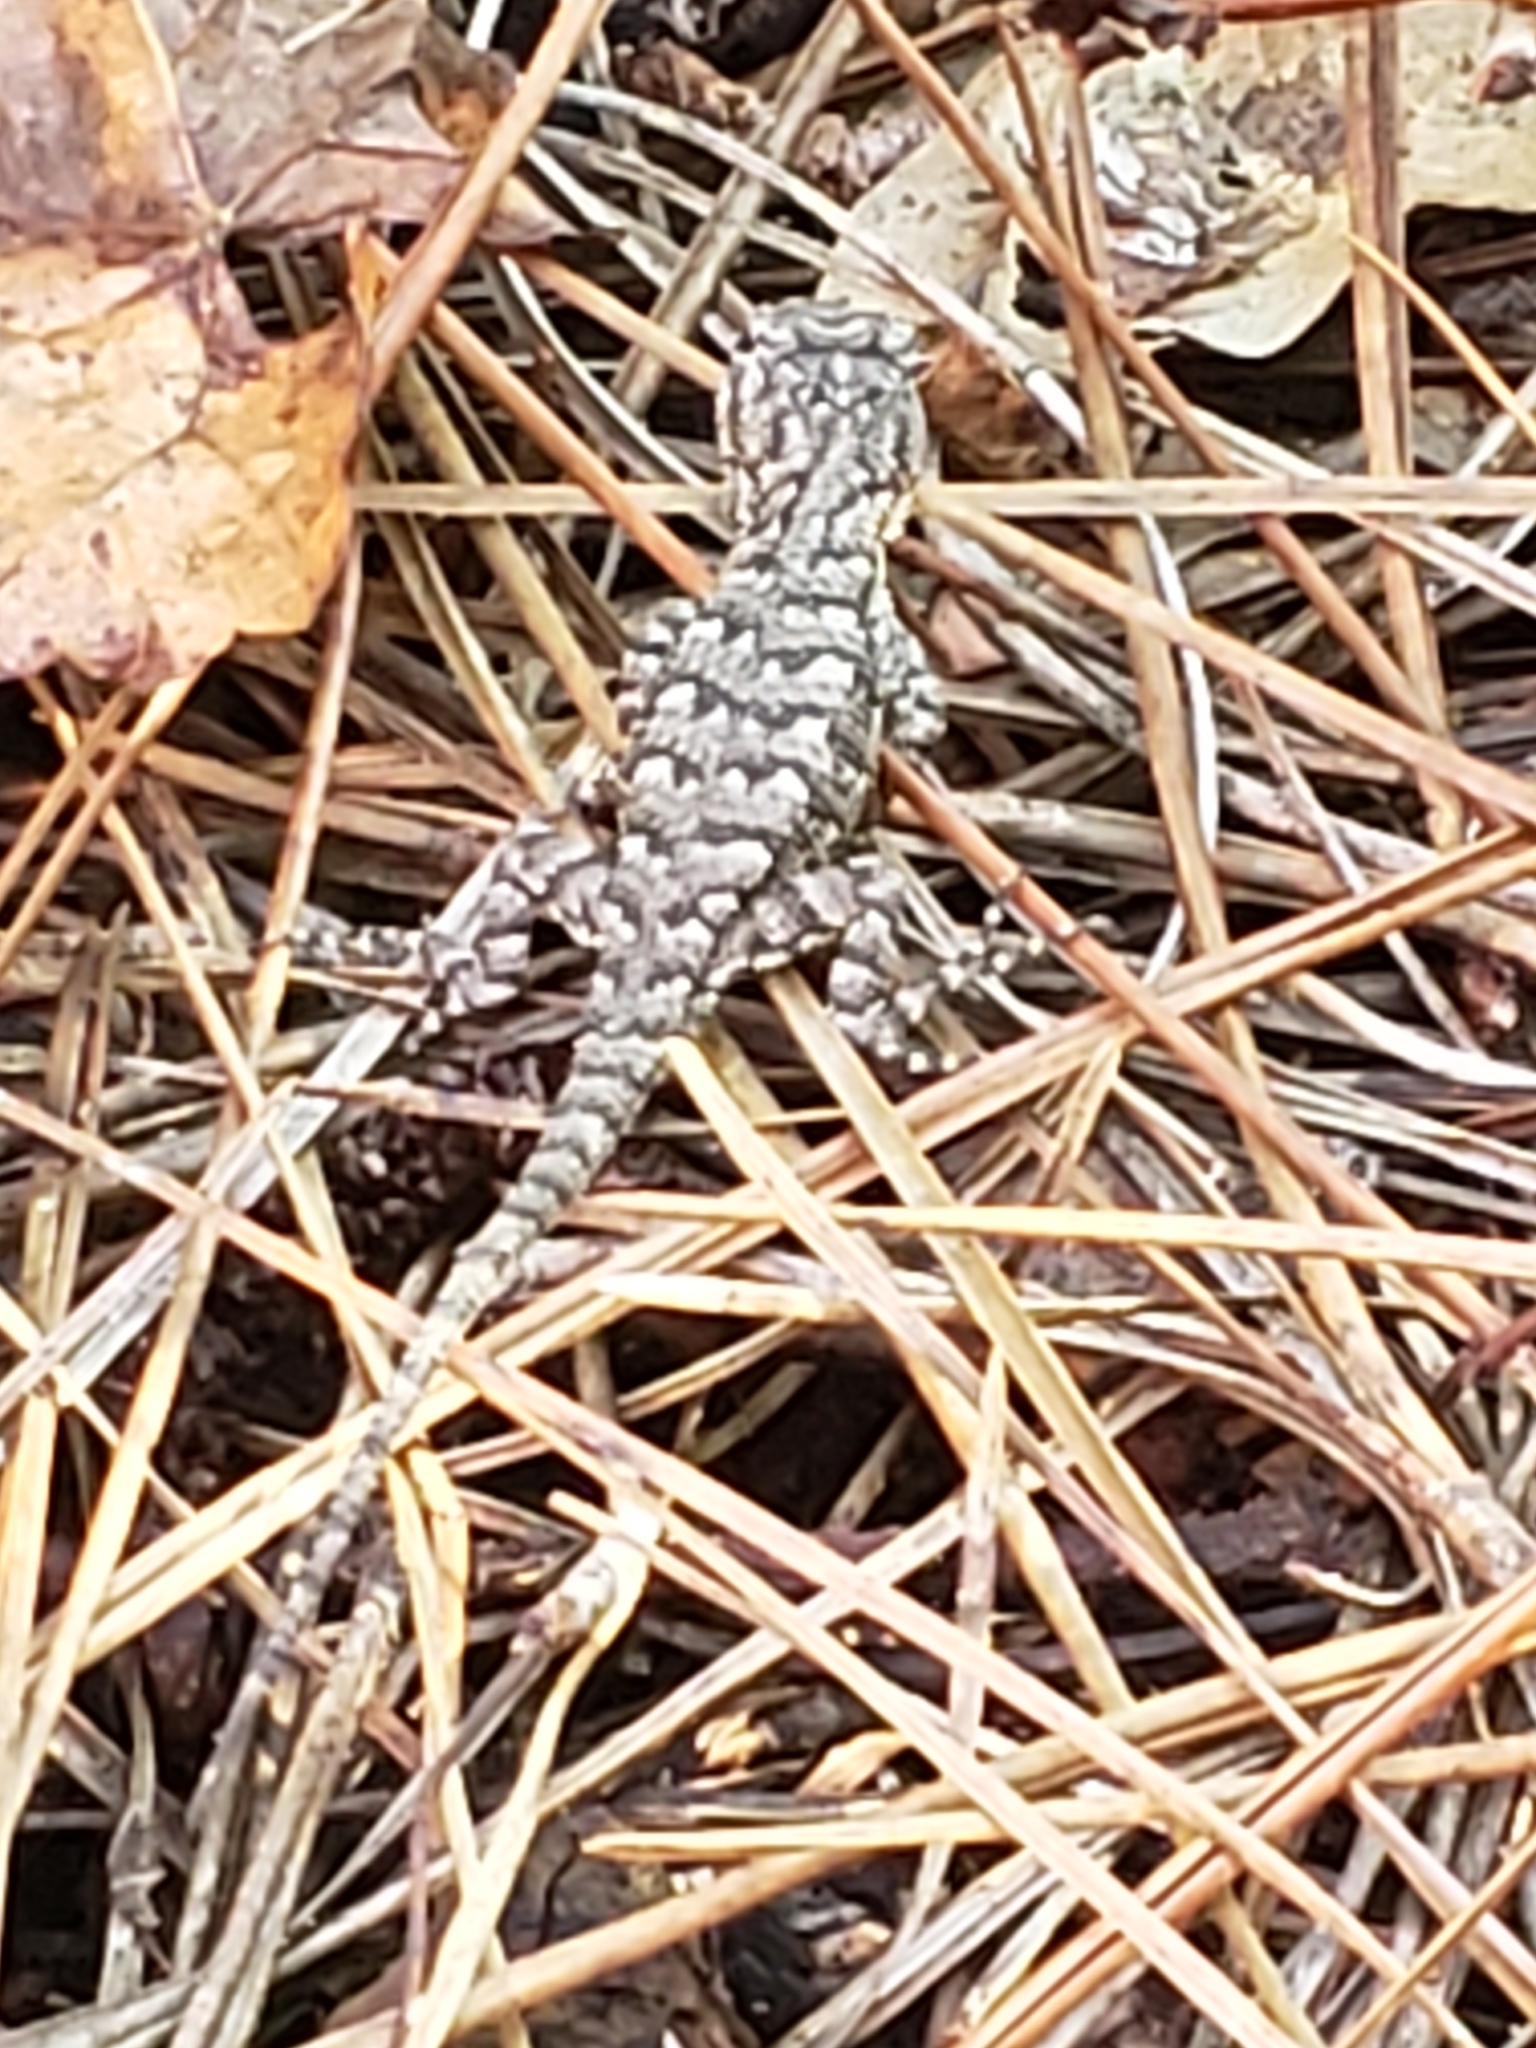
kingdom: Animalia
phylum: Chordata
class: Squamata
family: Phrynosomatidae
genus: Sceloporus
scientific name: Sceloporus undulatus
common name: Eastern fence lizard
